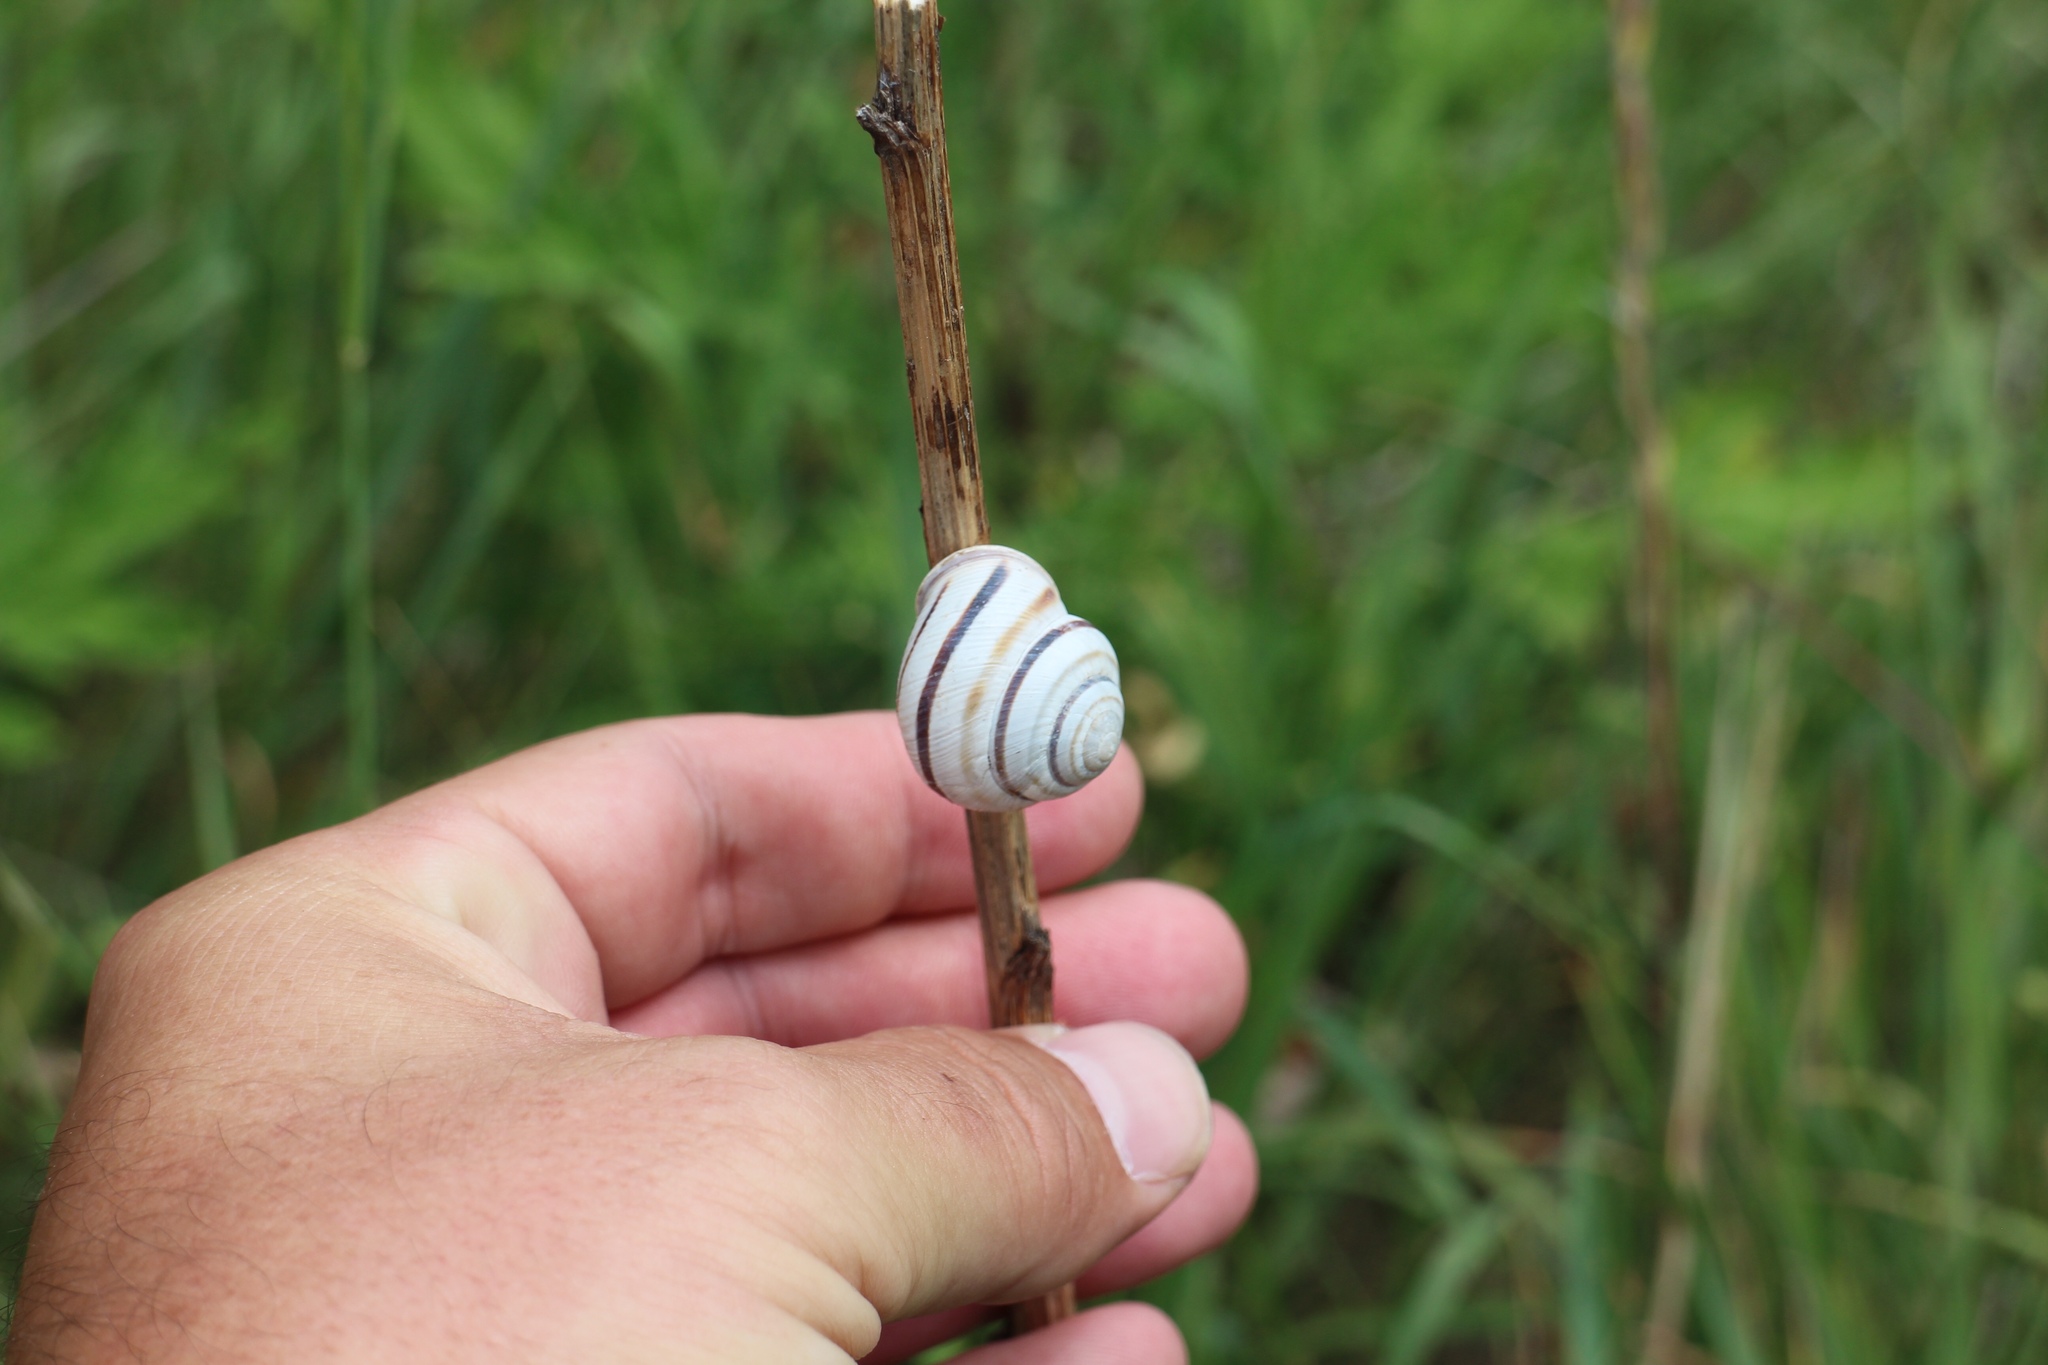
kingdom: Animalia
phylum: Mollusca
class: Gastropoda
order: Stylommatophora
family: Helicidae
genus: Caucasotachea
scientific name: Caucasotachea vindobonensis
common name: European helicid land snail
